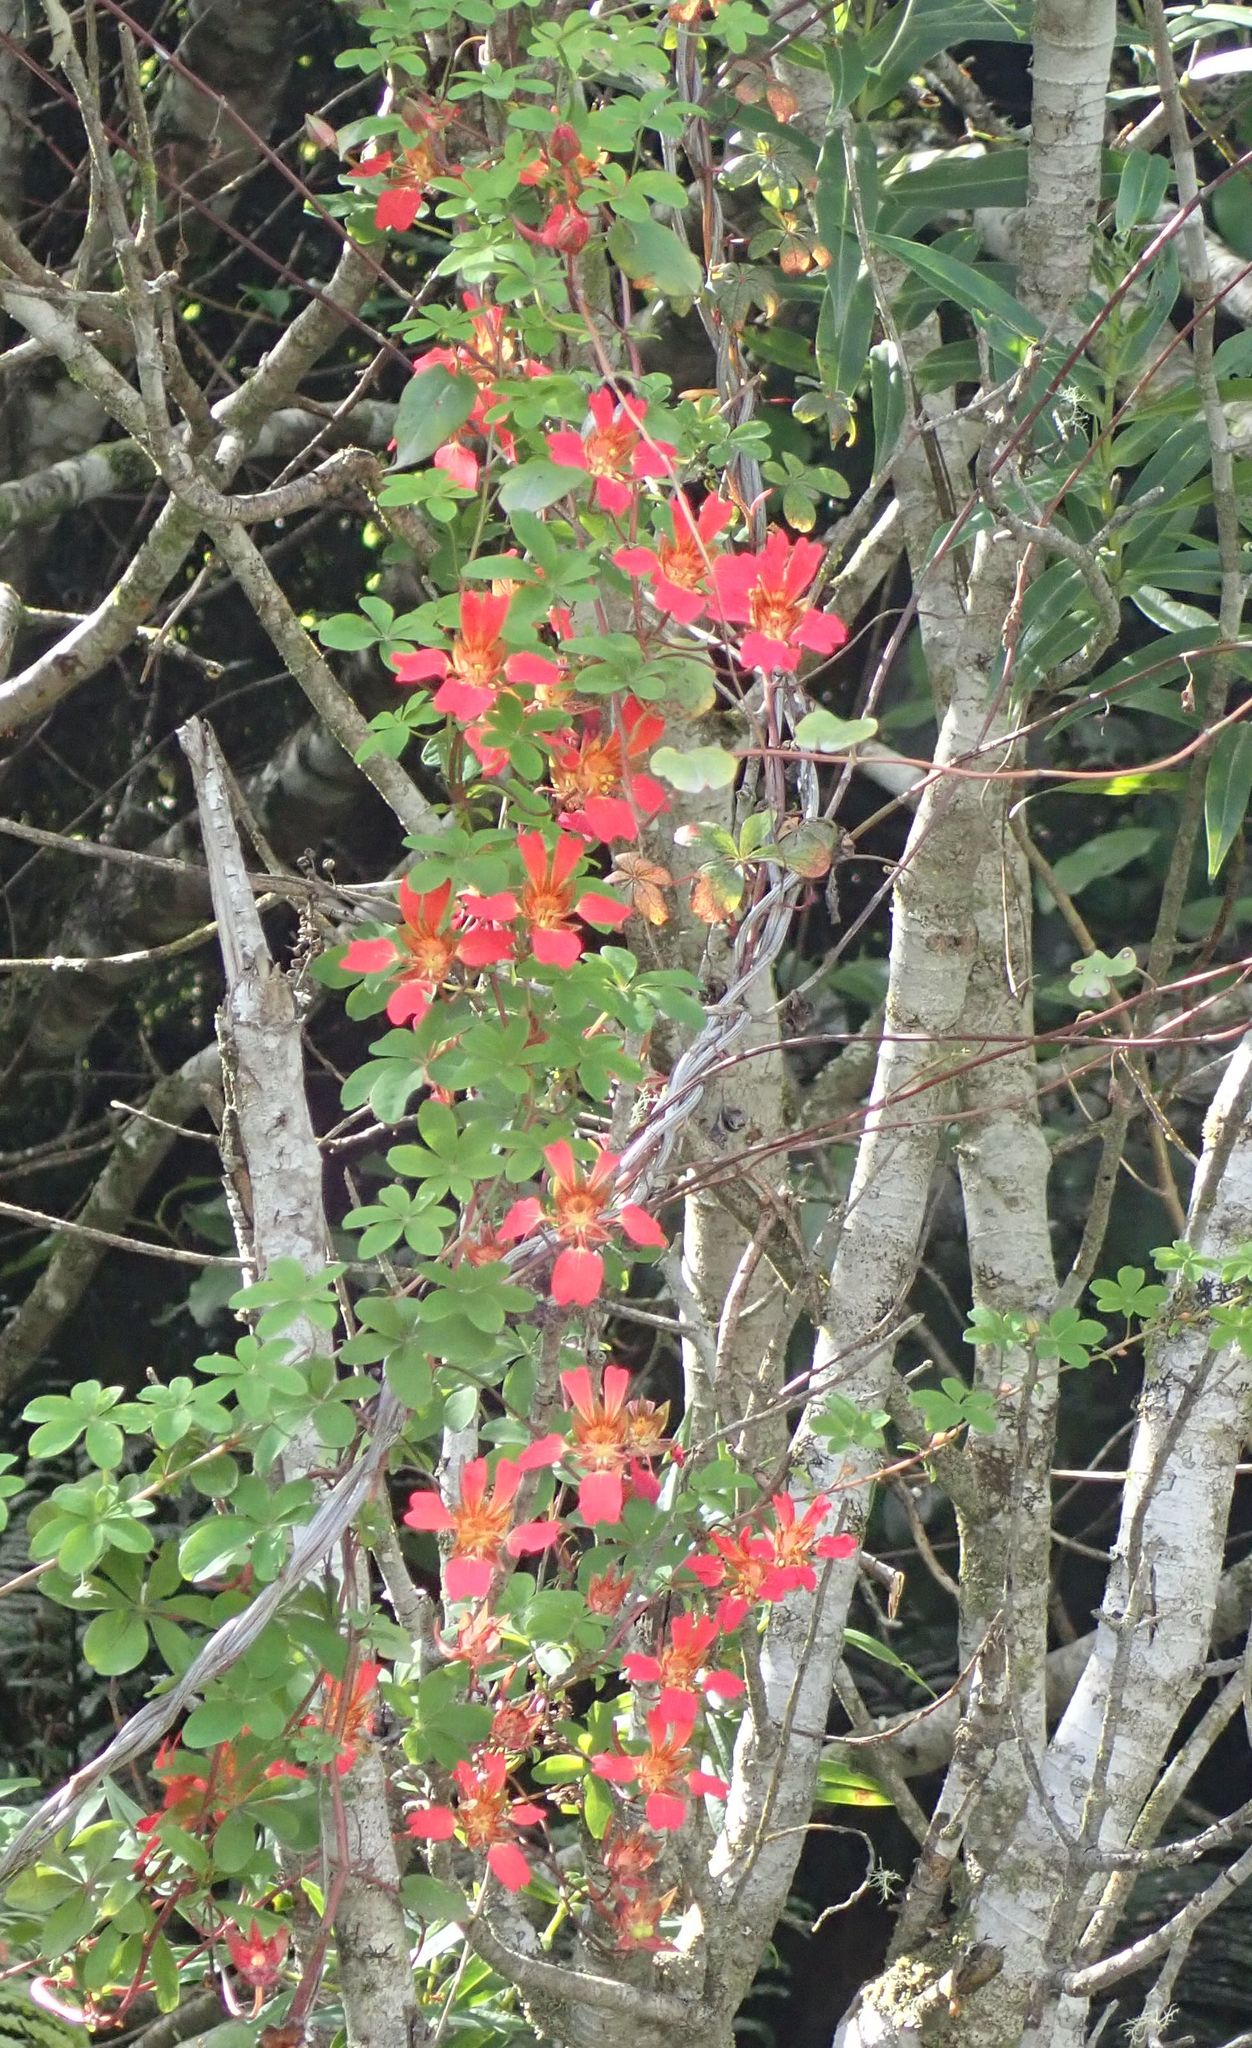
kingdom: Plantae
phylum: Tracheophyta
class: Magnoliopsida
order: Brassicales
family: Tropaeolaceae
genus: Tropaeolum
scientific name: Tropaeolum speciosum
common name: Flame nasturtium
